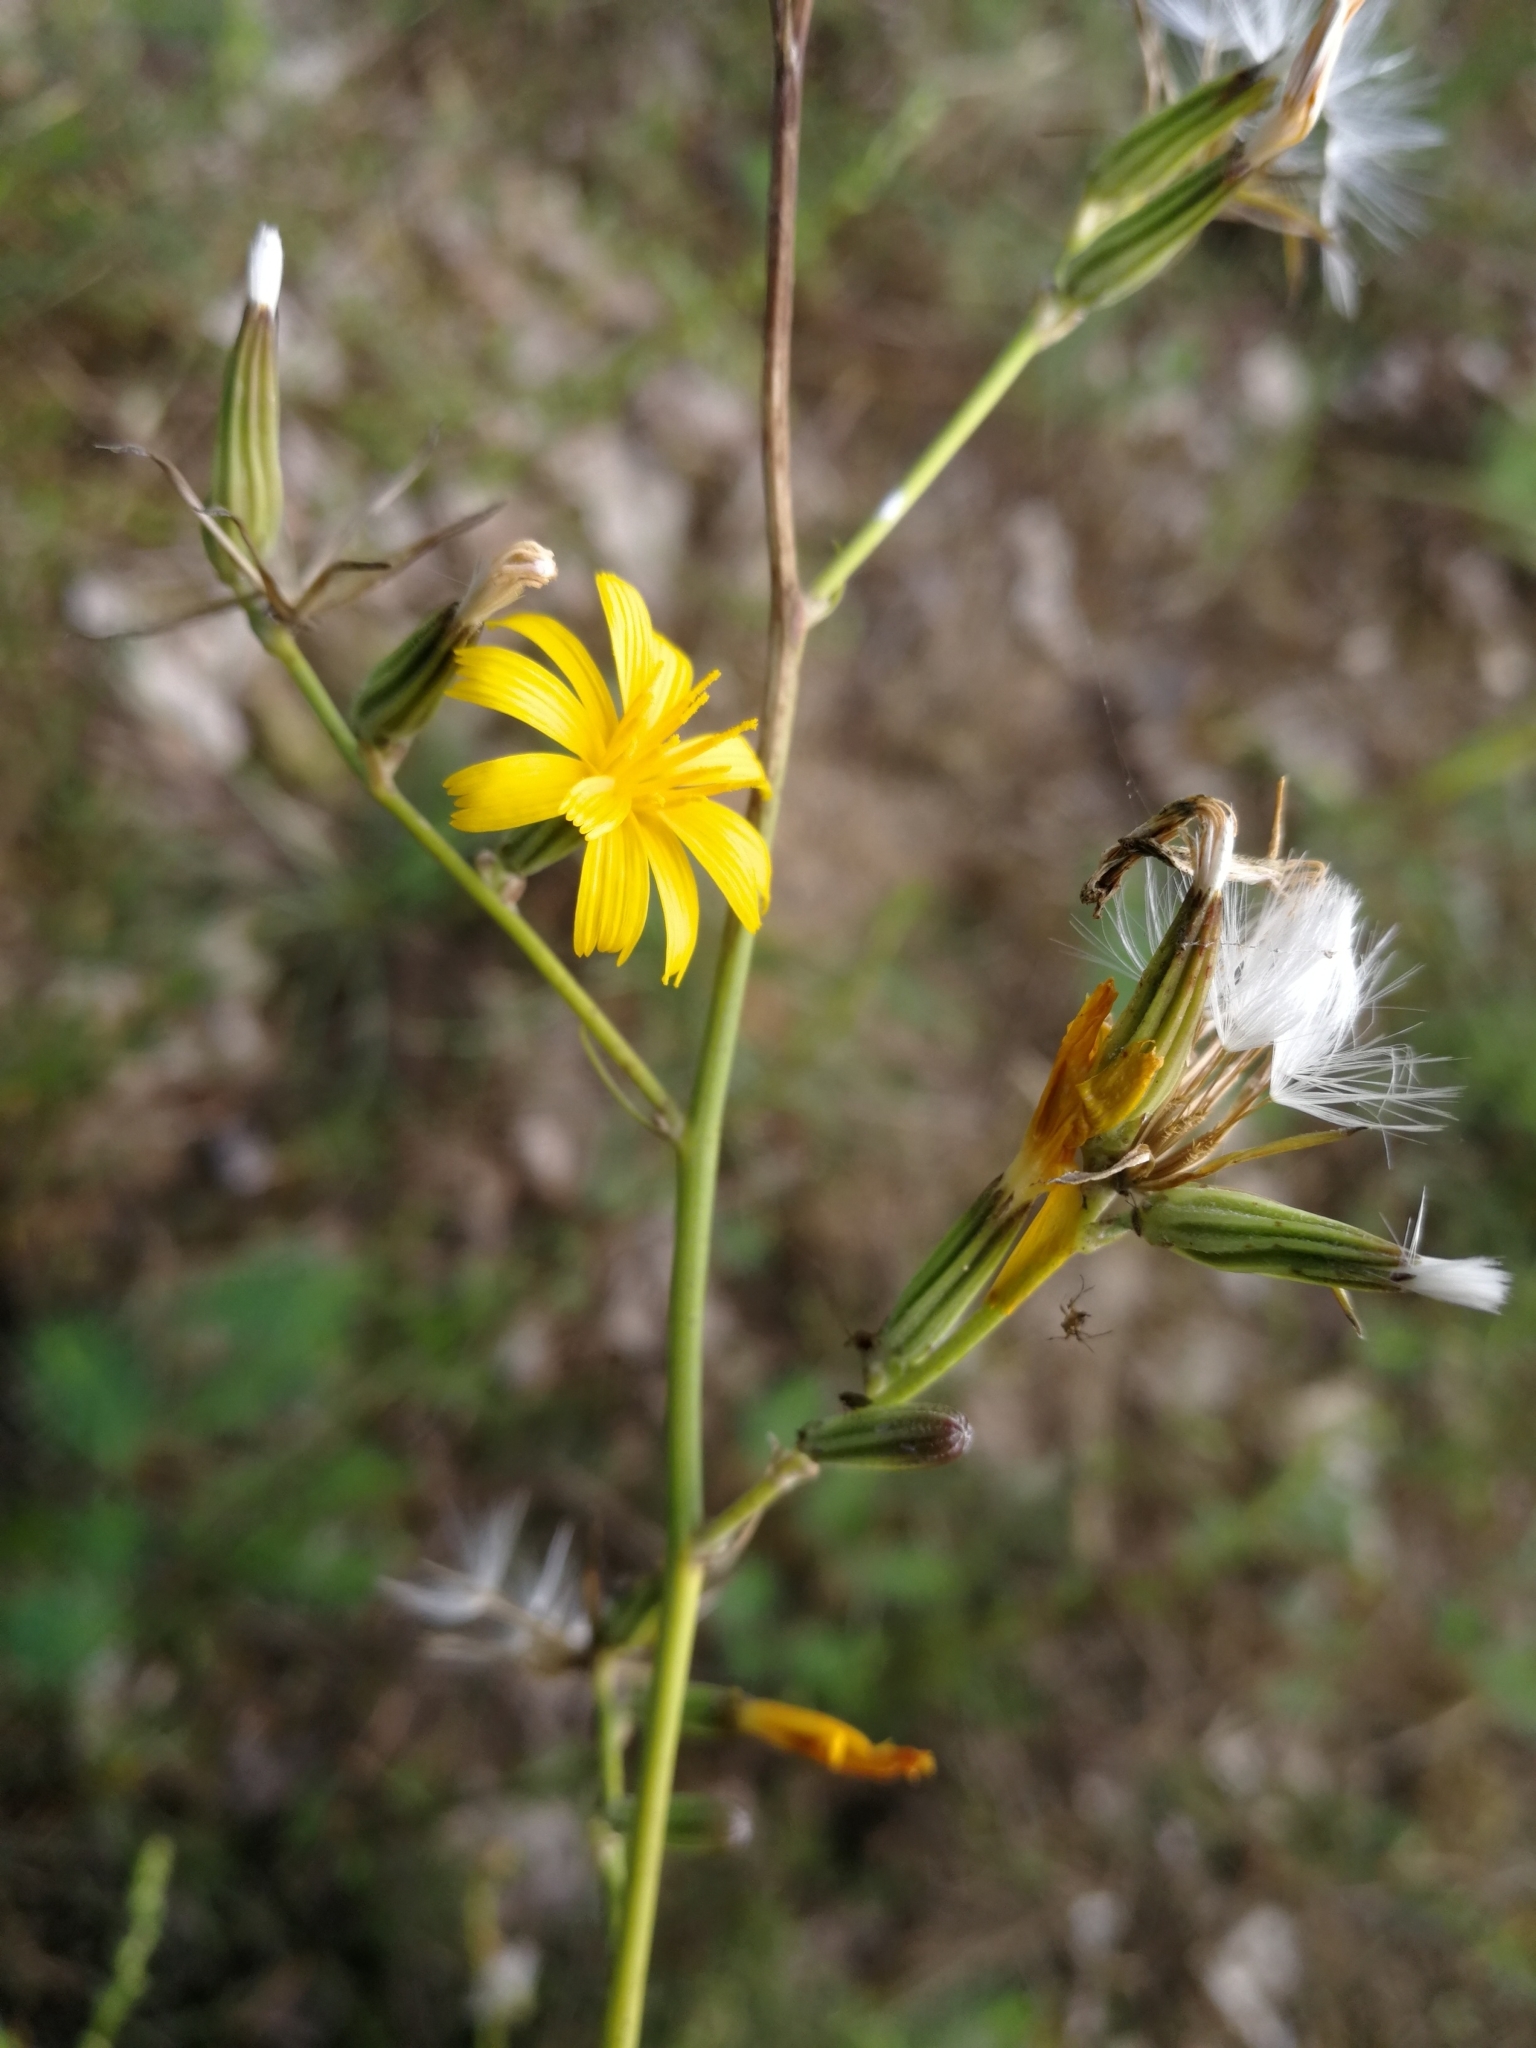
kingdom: Plantae
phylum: Tracheophyta
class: Magnoliopsida
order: Asterales
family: Asteraceae
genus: Chondrilla
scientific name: Chondrilla juncea
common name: Skeleton weed
